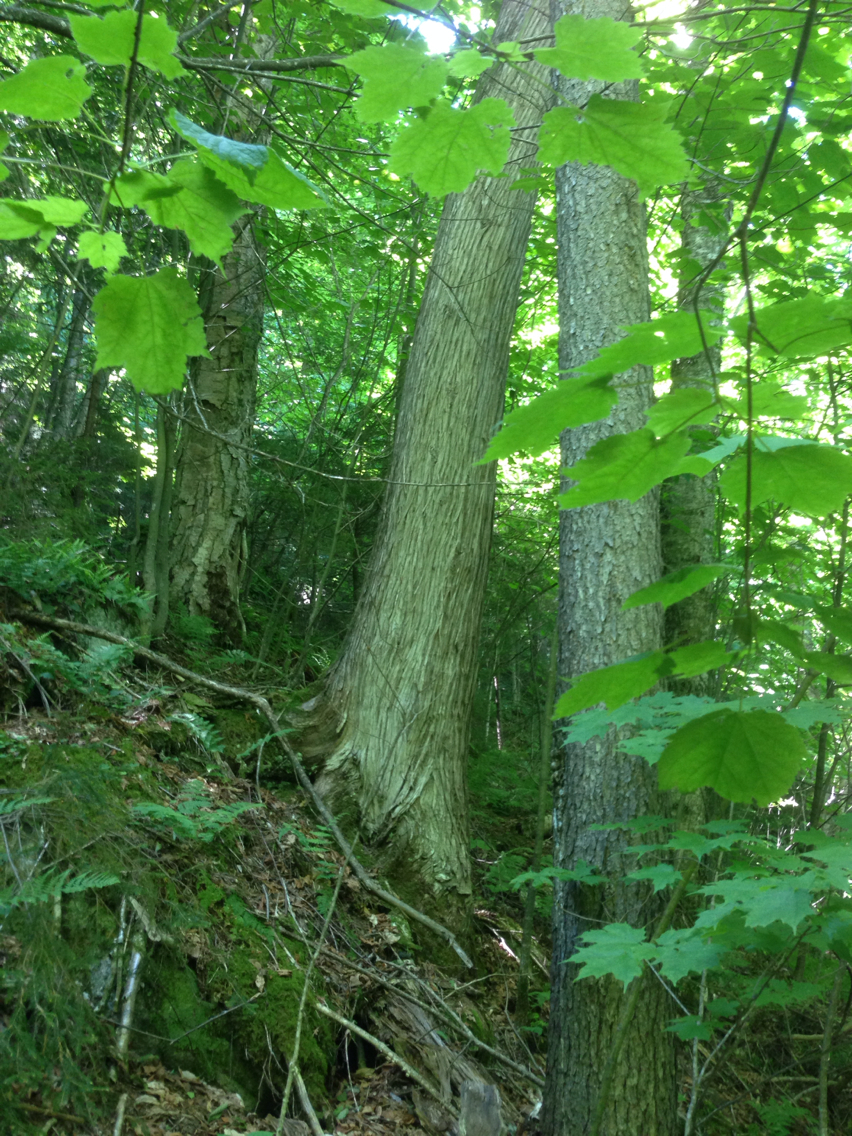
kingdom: Plantae
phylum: Tracheophyta
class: Pinopsida
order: Pinales
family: Cupressaceae
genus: Thuja
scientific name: Thuja occidentalis
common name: Northern white-cedar
